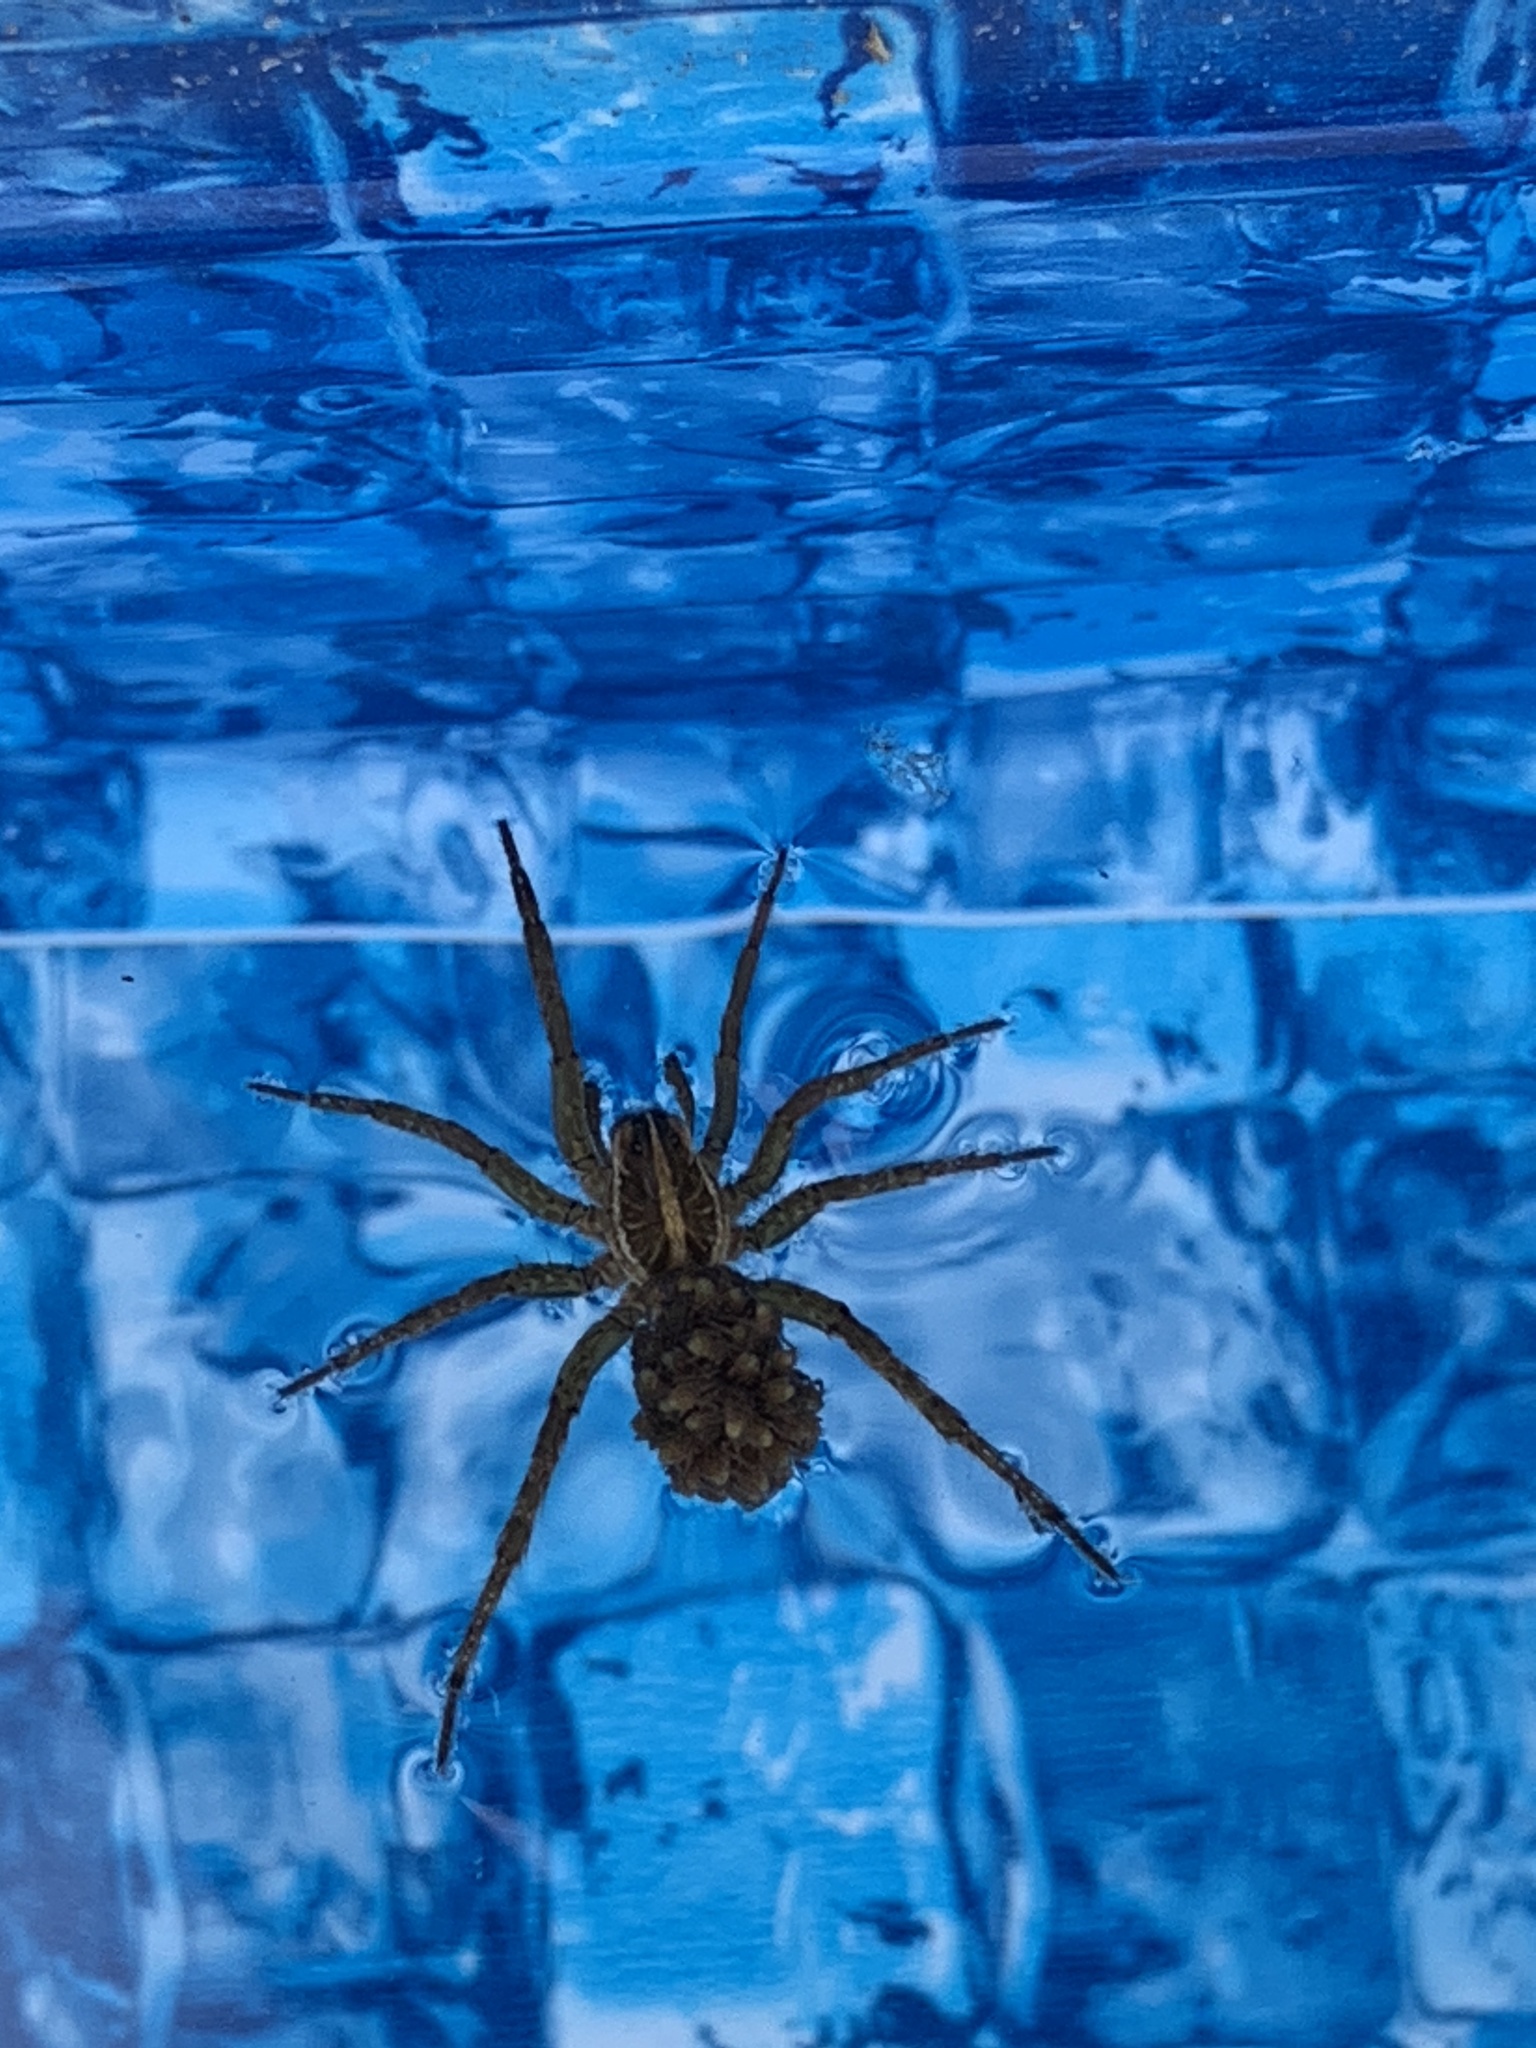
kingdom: Animalia
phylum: Arthropoda
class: Arachnida
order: Araneae
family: Lycosidae
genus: Tigrosa
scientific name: Tigrosa annexa
